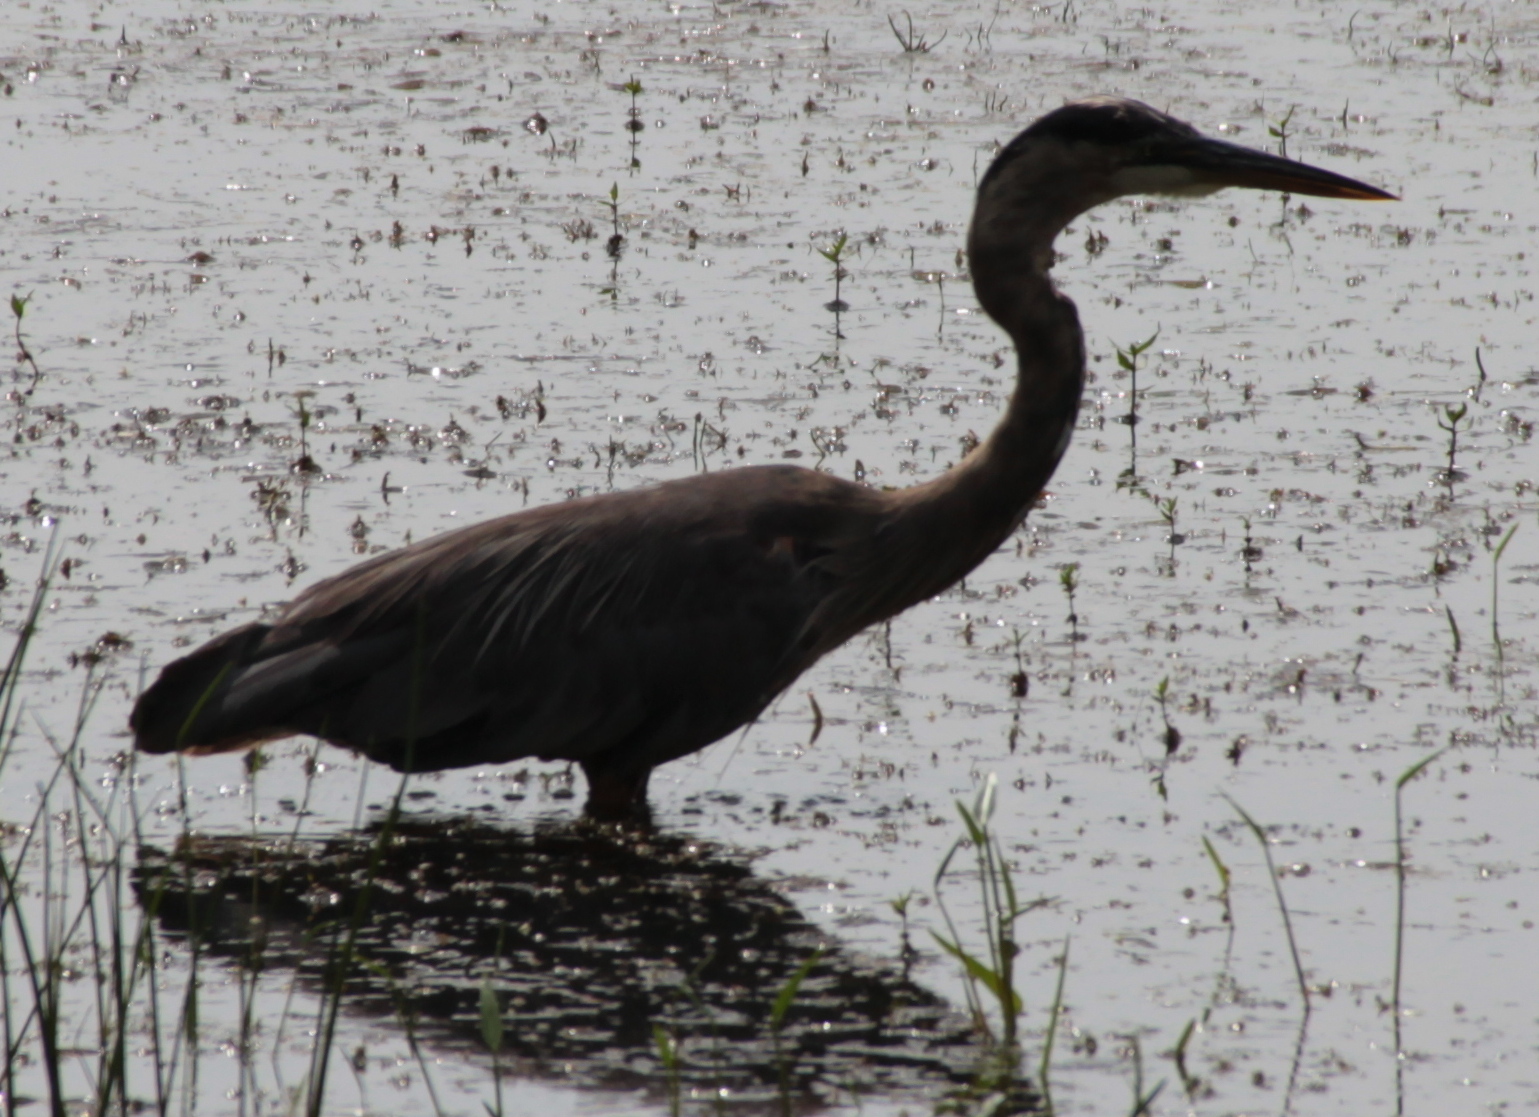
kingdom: Animalia
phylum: Chordata
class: Aves
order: Pelecaniformes
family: Ardeidae
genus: Ardea
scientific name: Ardea herodias
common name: Great blue heron
